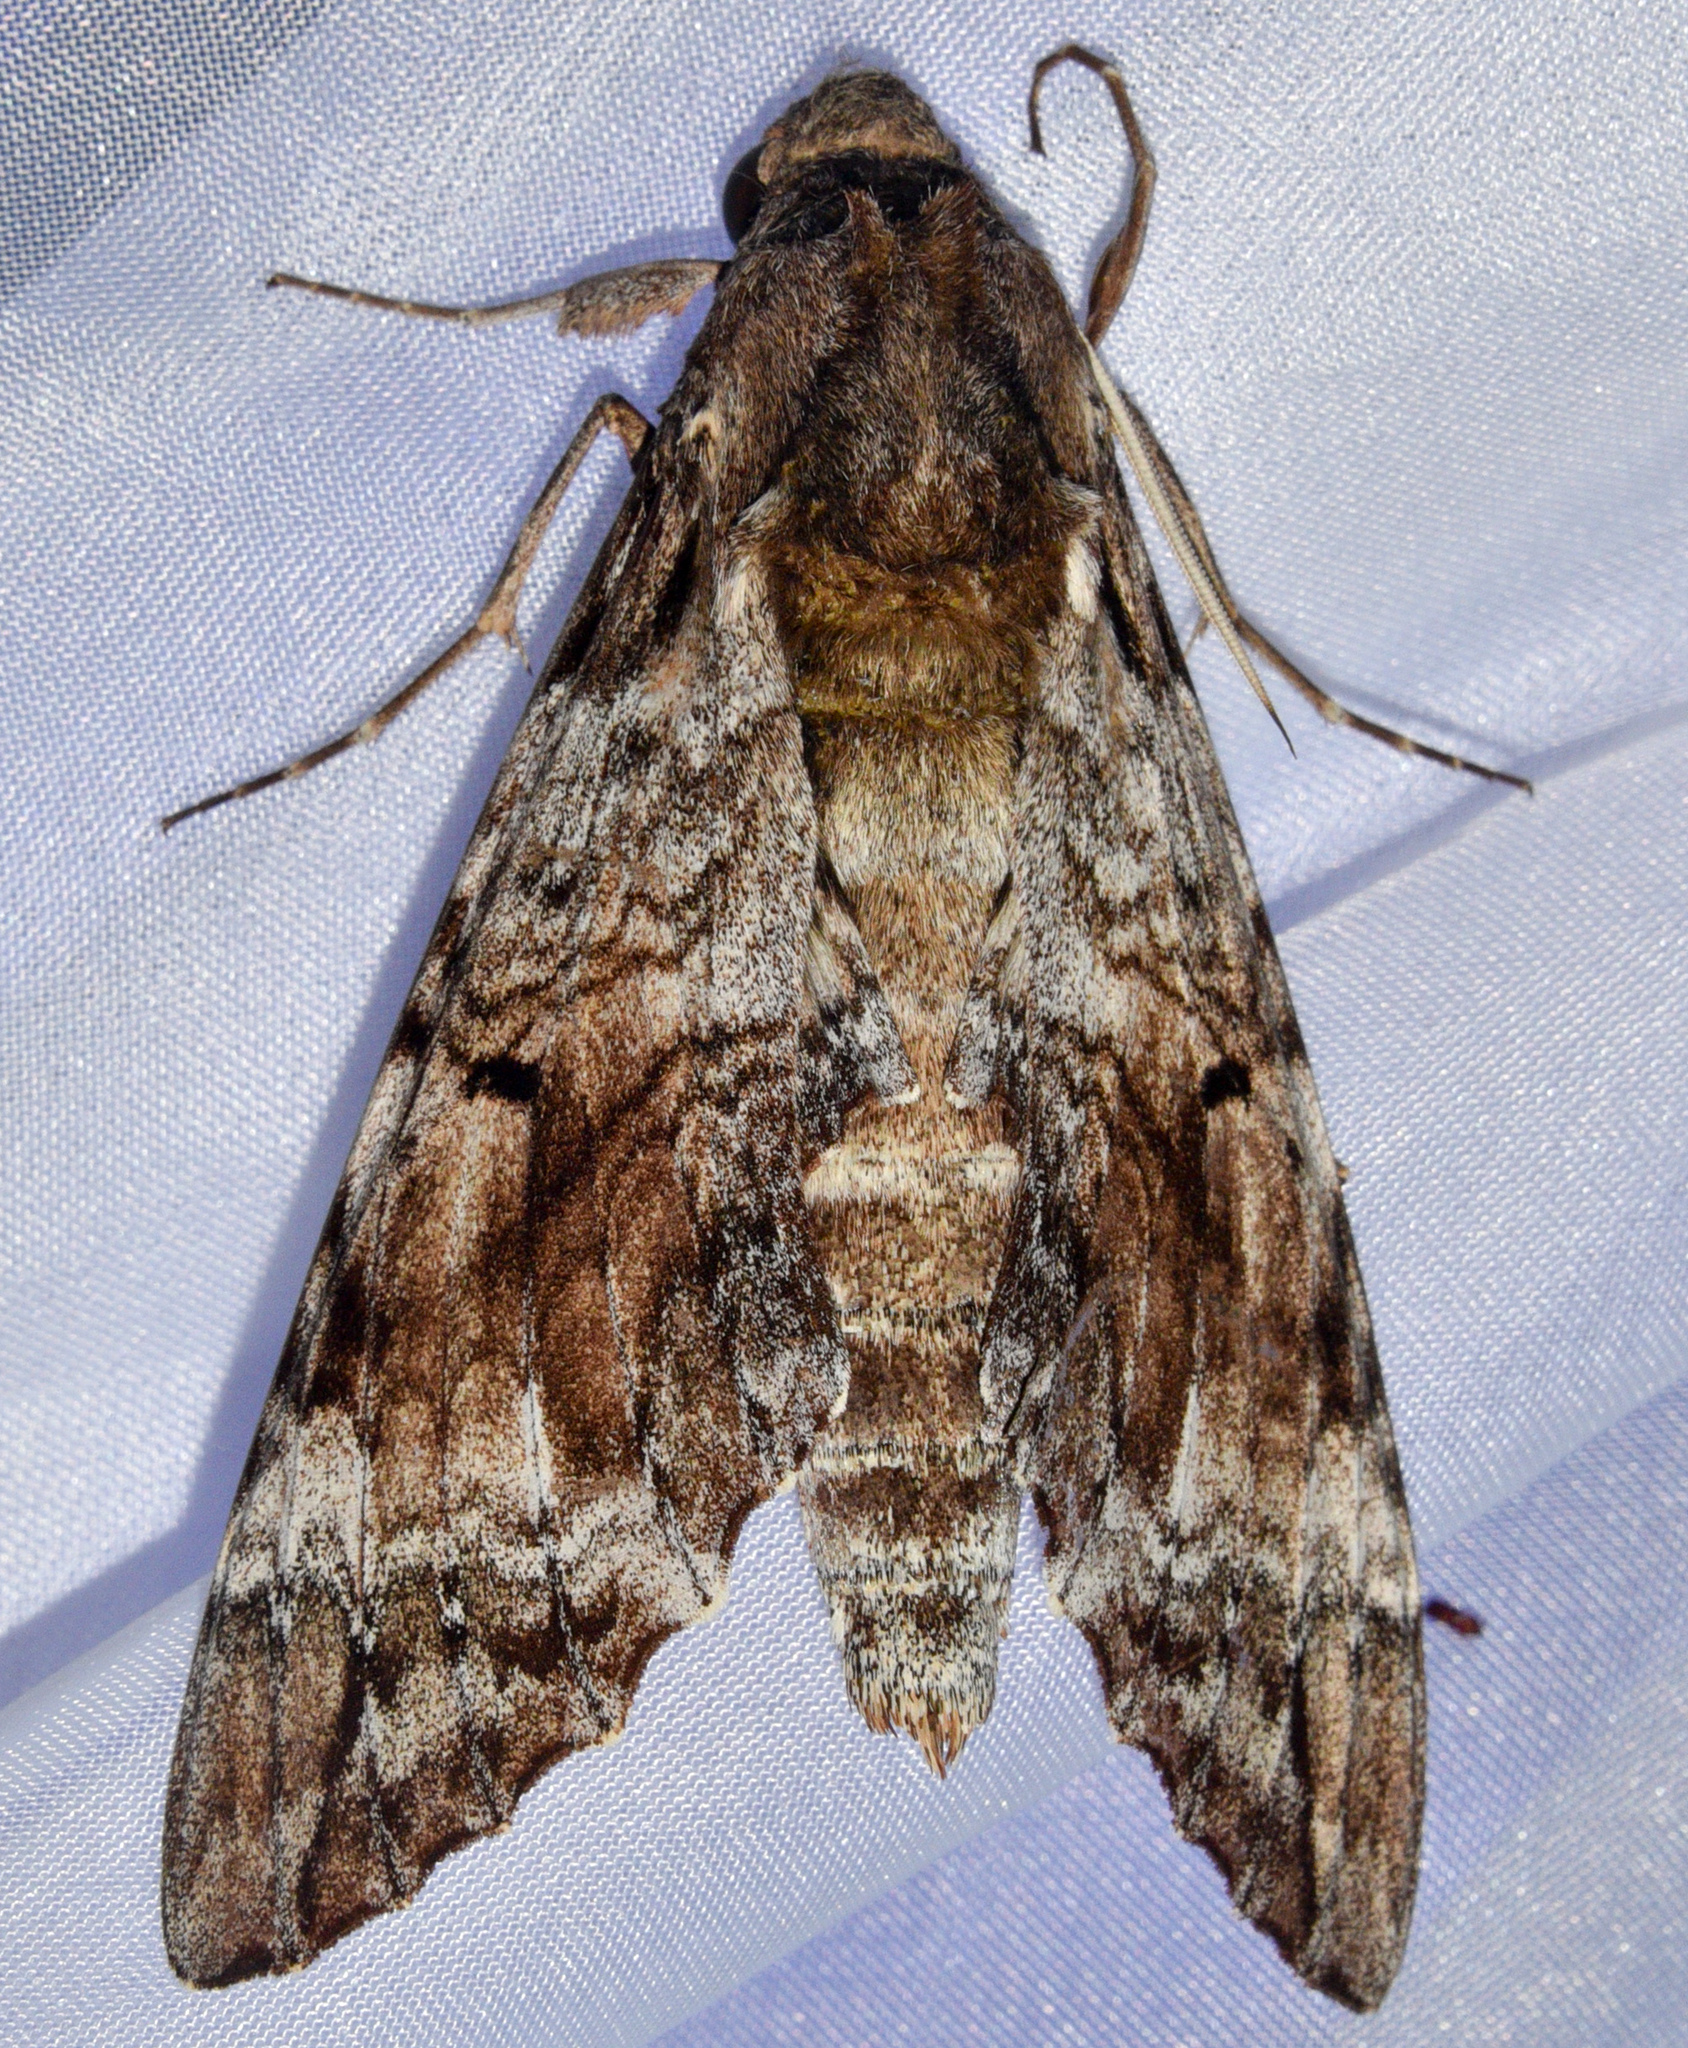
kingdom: Animalia
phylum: Arthropoda
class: Insecta
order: Lepidoptera
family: Sphingidae
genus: Pseudosphinx
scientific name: Pseudosphinx tetrio
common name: Tetrio sphinx
